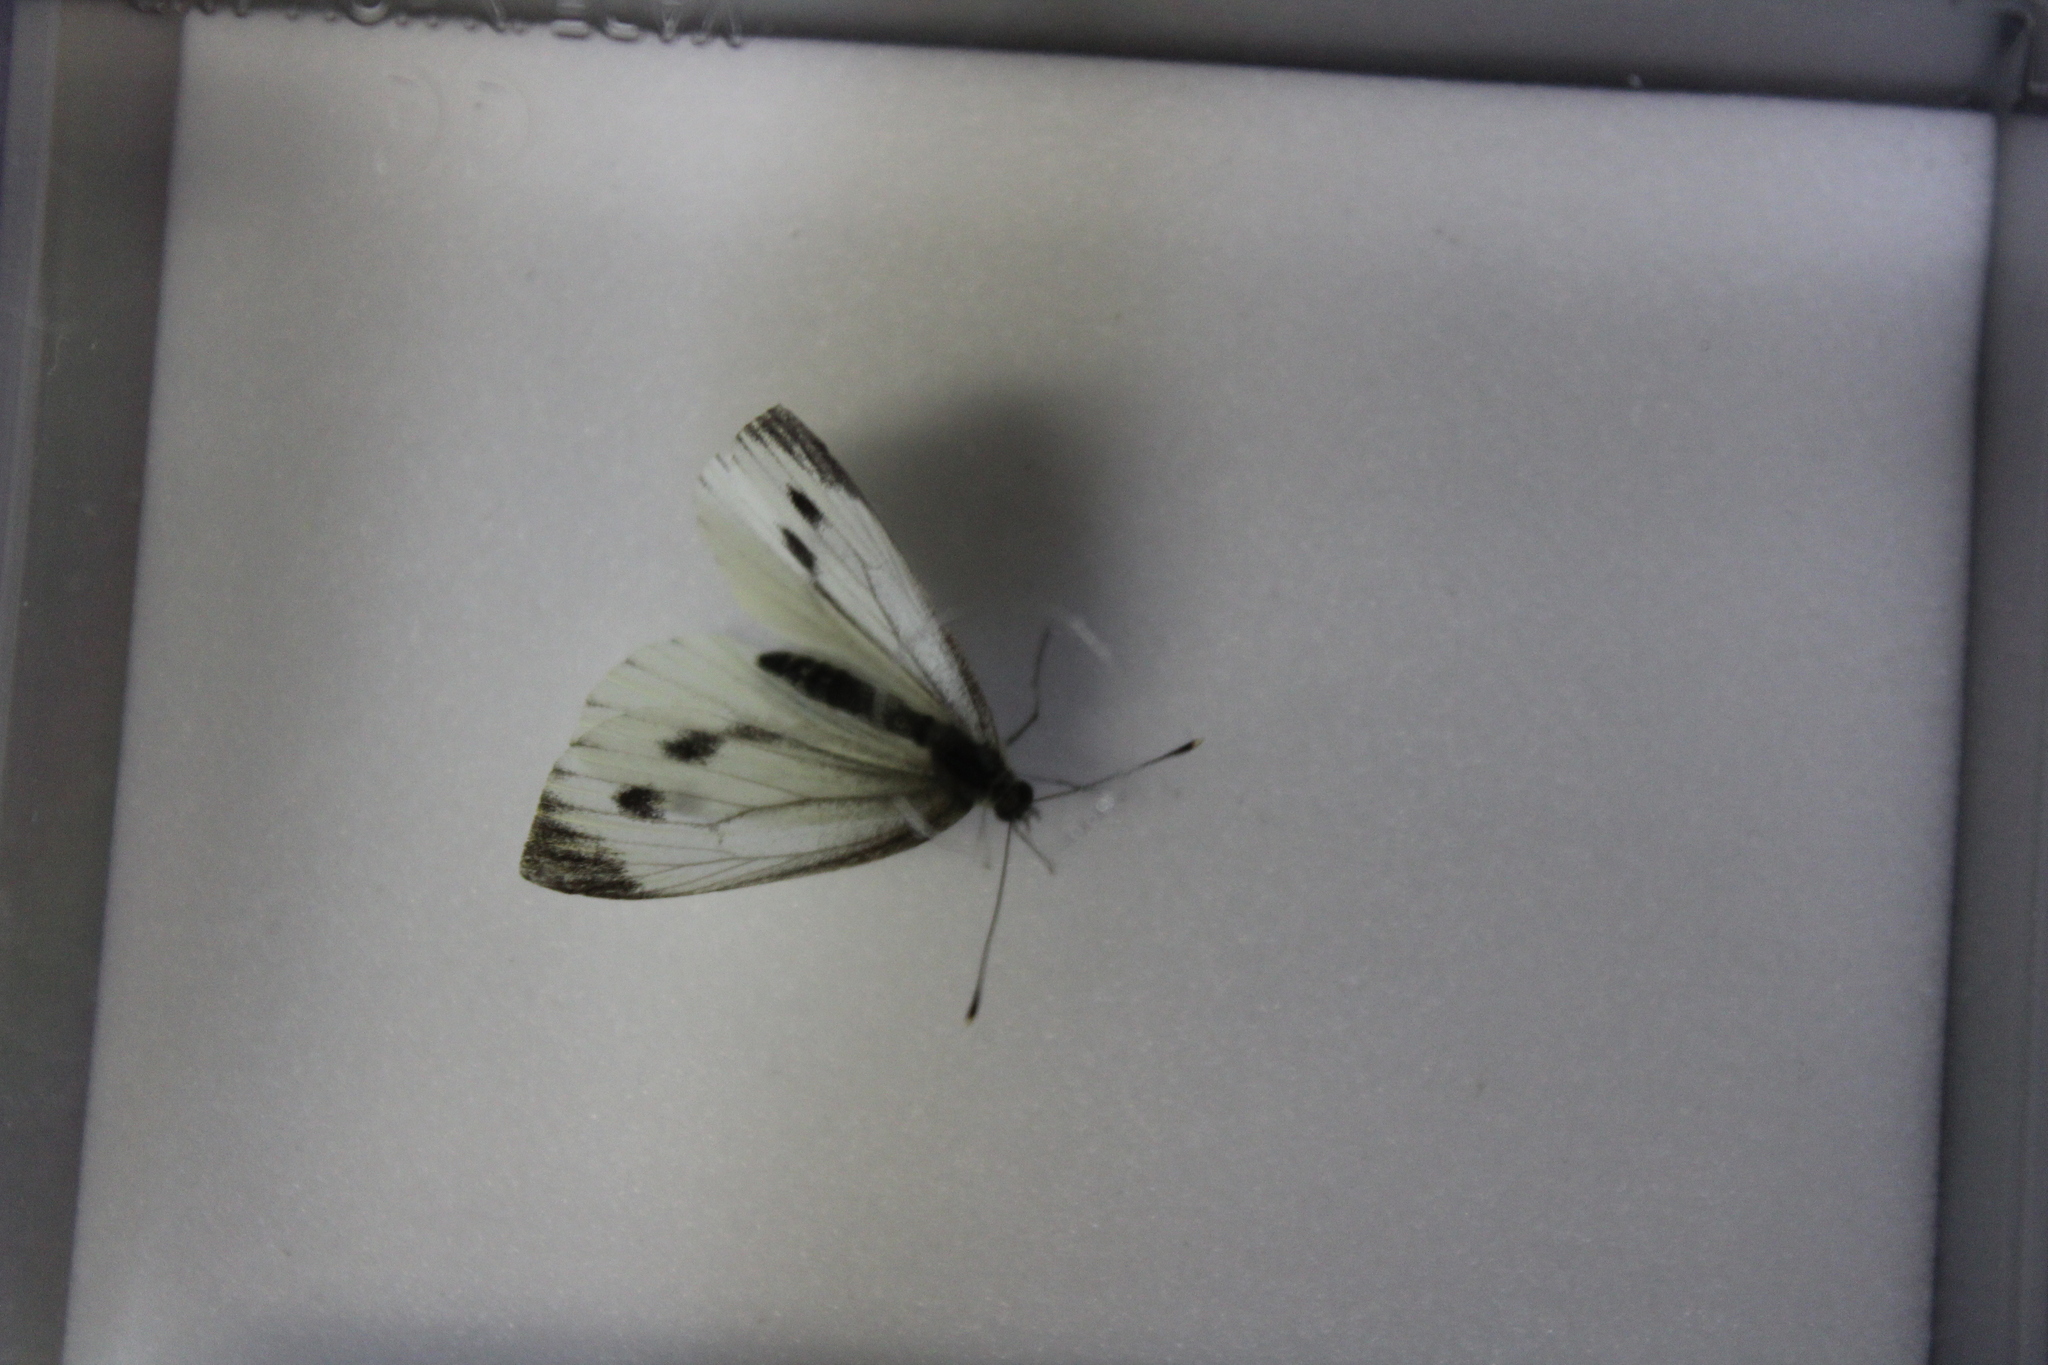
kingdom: Animalia
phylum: Arthropoda
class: Insecta
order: Lepidoptera
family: Pieridae
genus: Pieris
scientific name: Pieris napi
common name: Green-veined white
